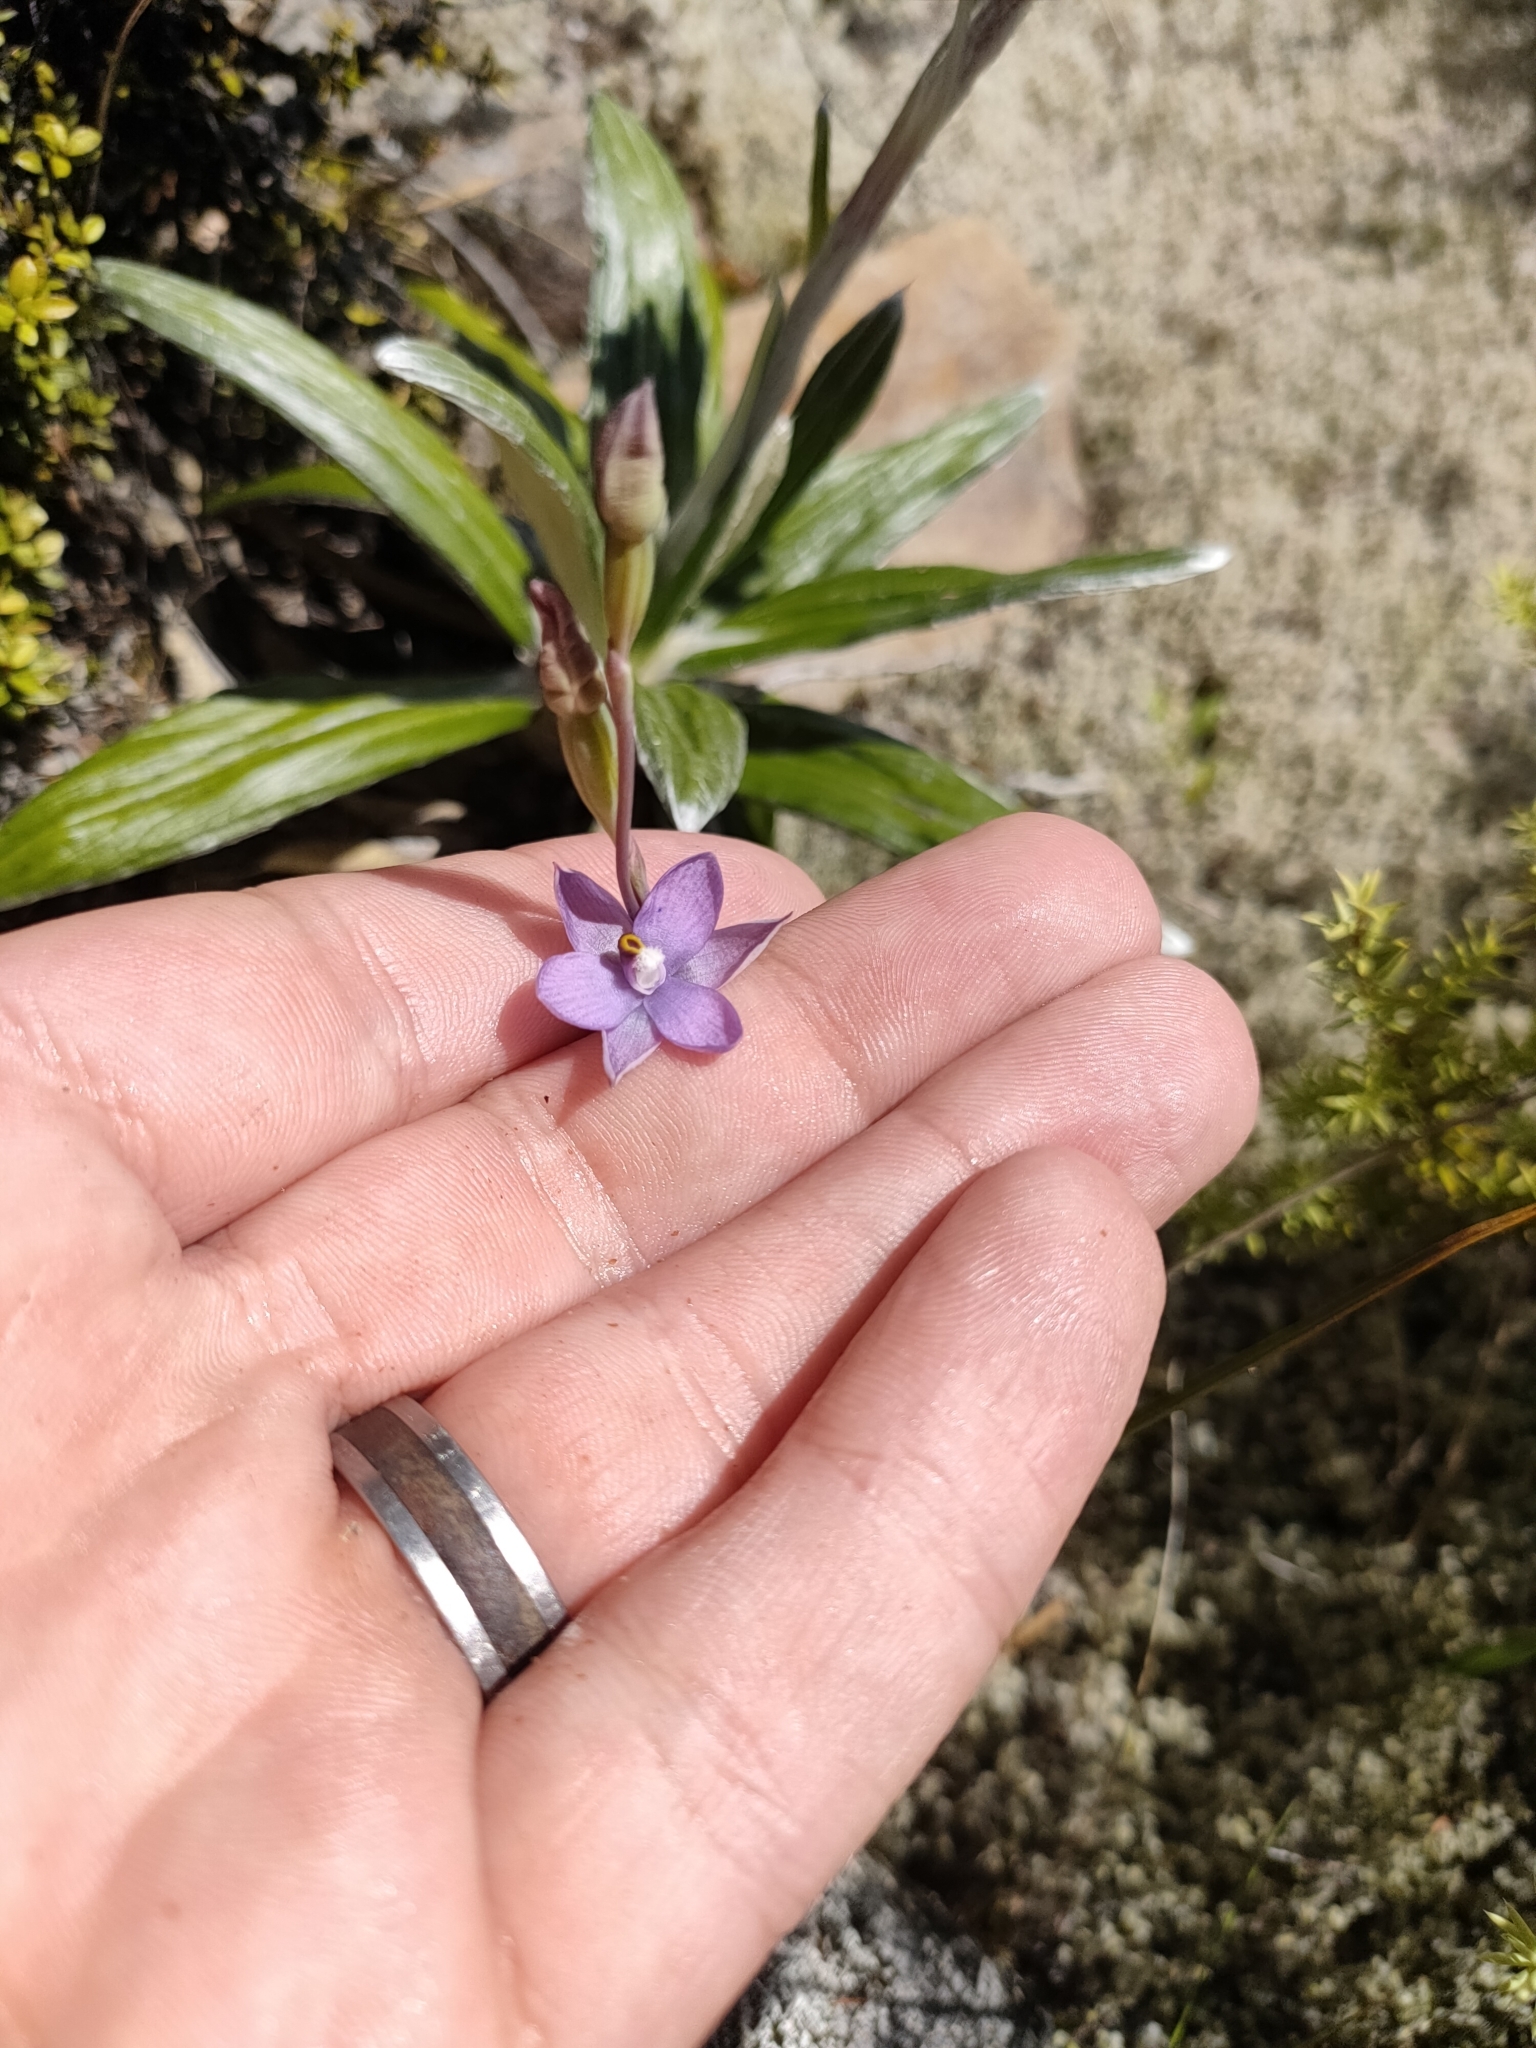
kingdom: Plantae
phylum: Tracheophyta
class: Liliopsida
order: Asparagales
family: Orchidaceae
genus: Thelymitra
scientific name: Thelymitra hatchii
